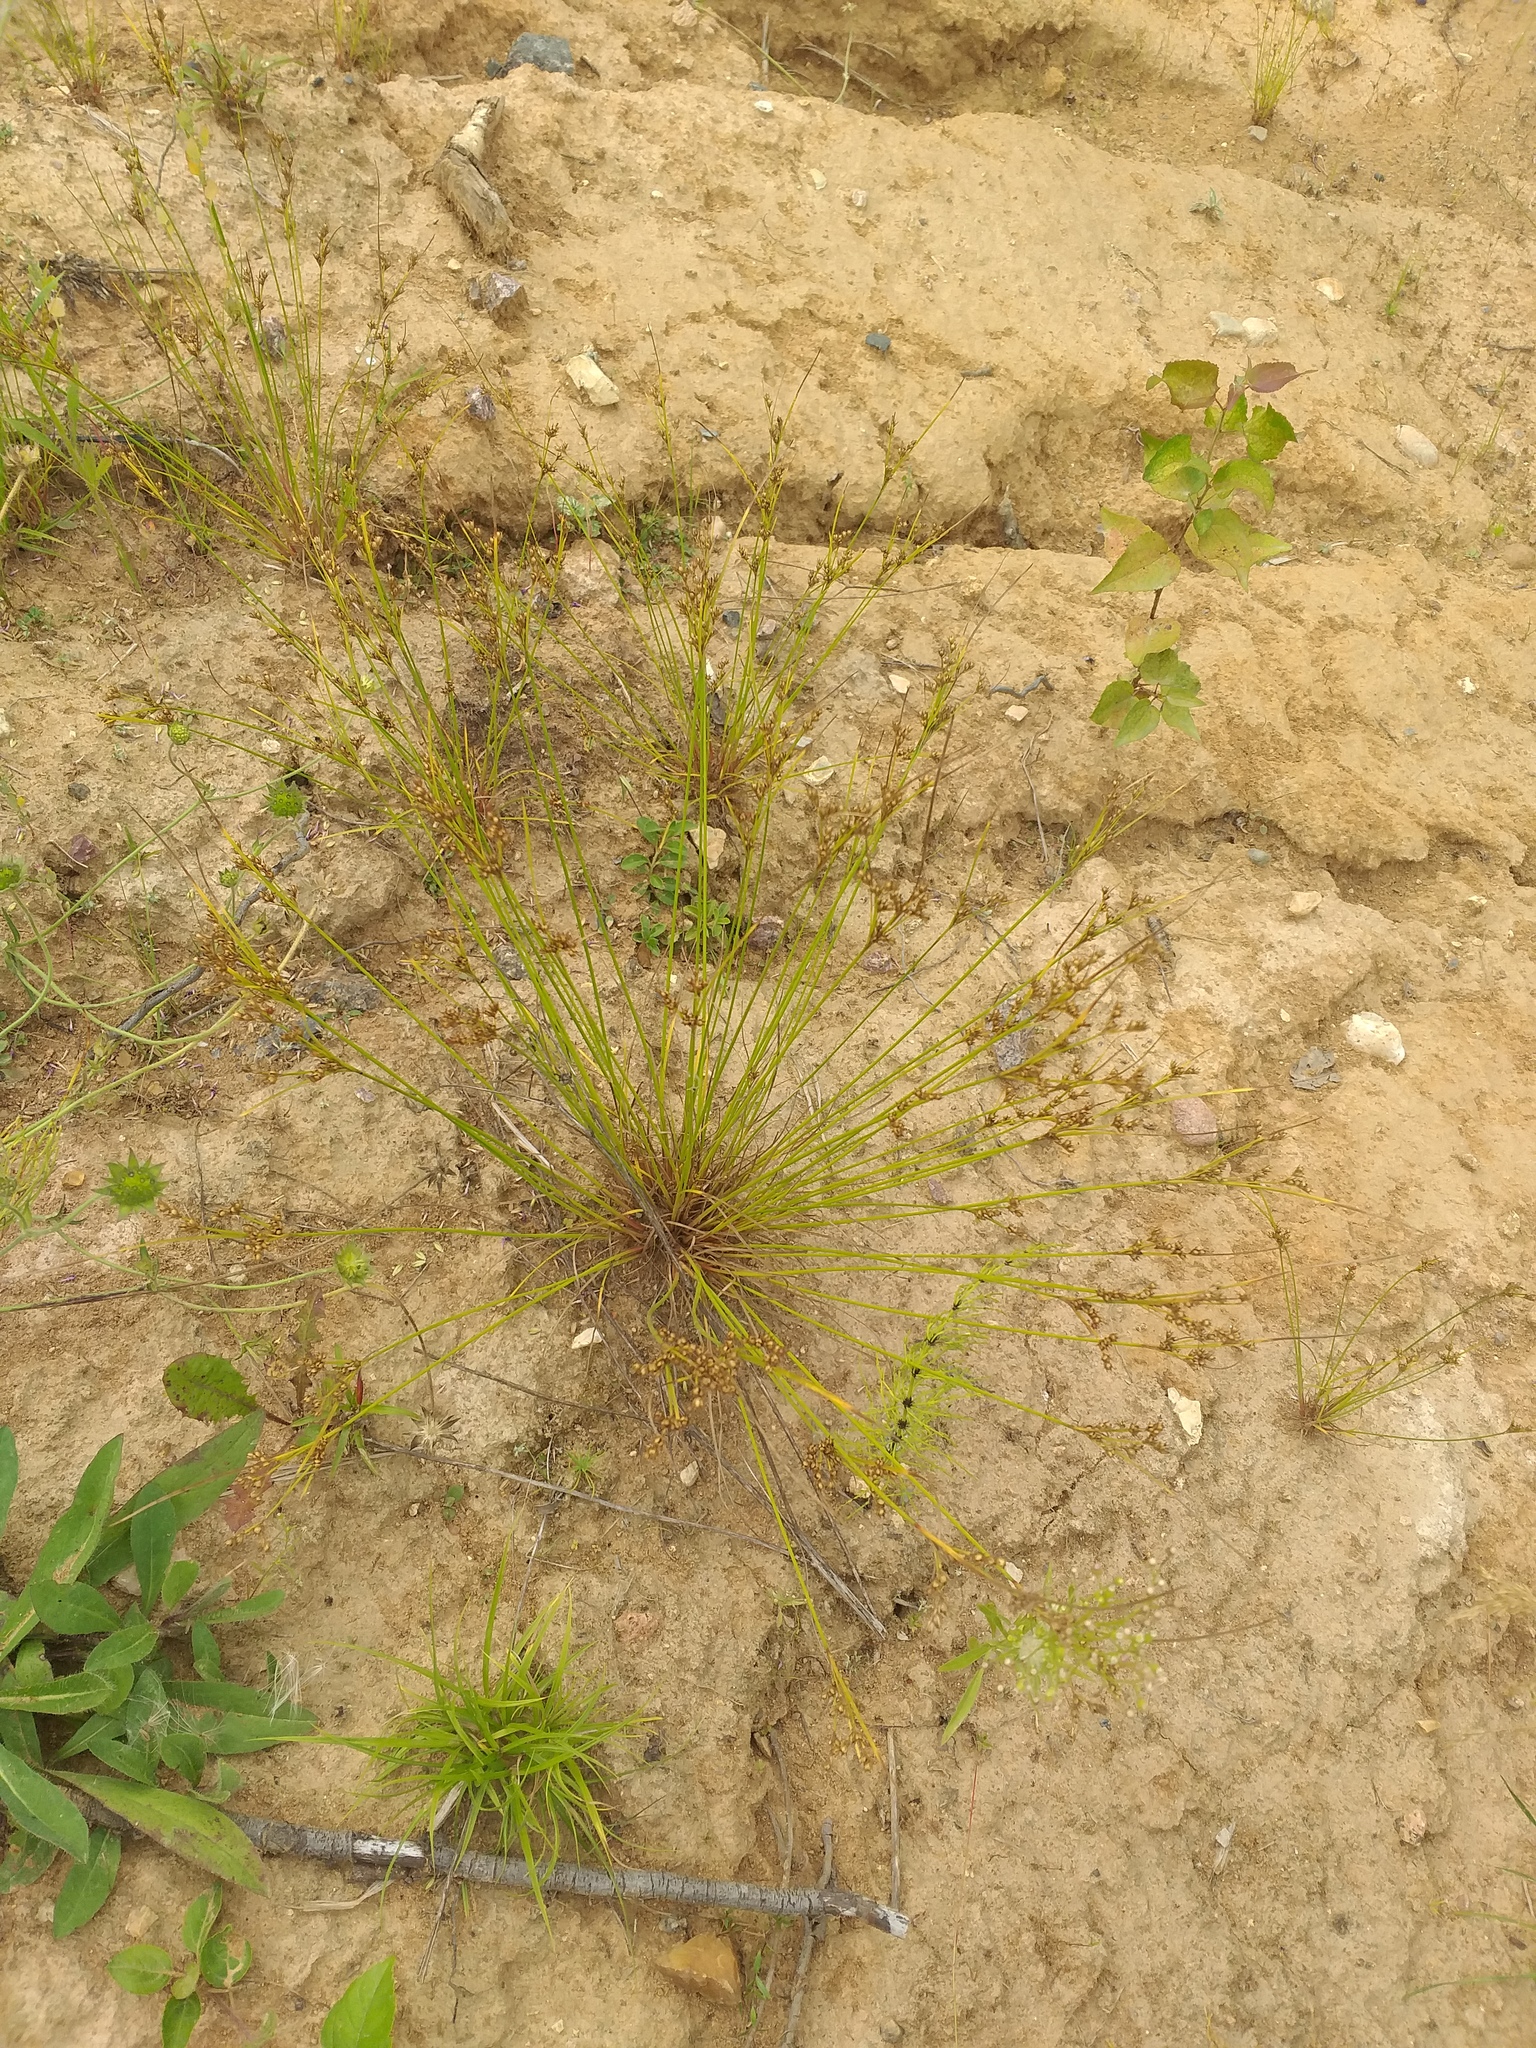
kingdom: Plantae
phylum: Tracheophyta
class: Liliopsida
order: Poales
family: Juncaceae
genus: Juncus
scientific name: Juncus tenuis
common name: Slender rush
